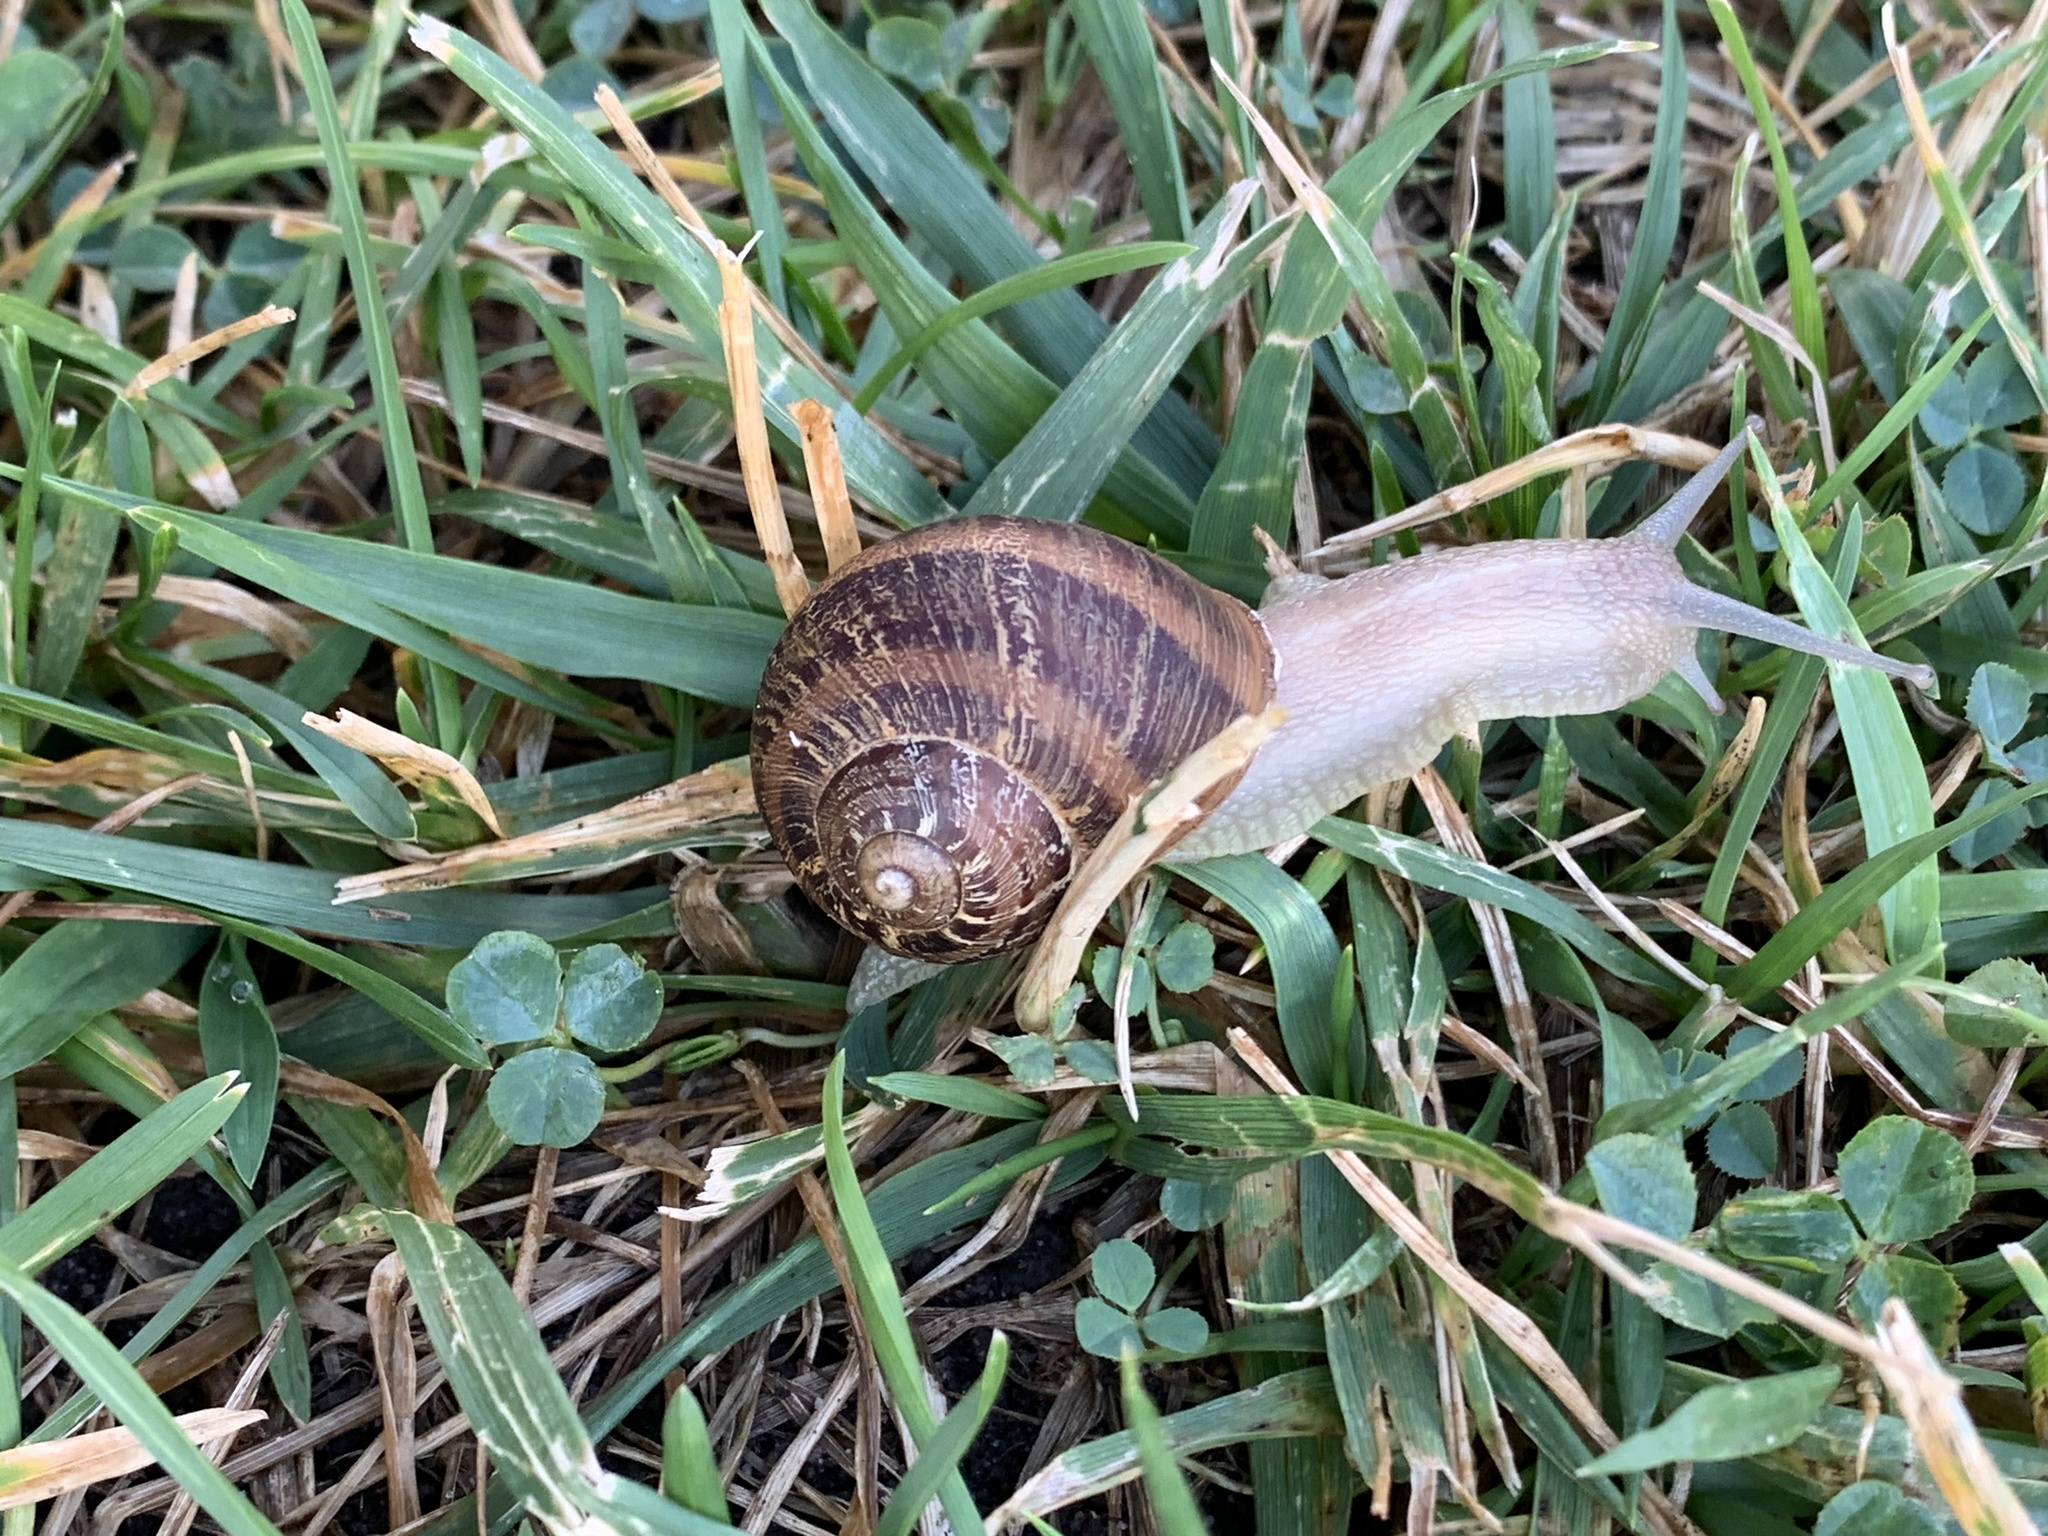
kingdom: Animalia
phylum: Mollusca
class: Gastropoda
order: Stylommatophora
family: Helicidae
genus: Cornu
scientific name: Cornu aspersum
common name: Brown garden snail
